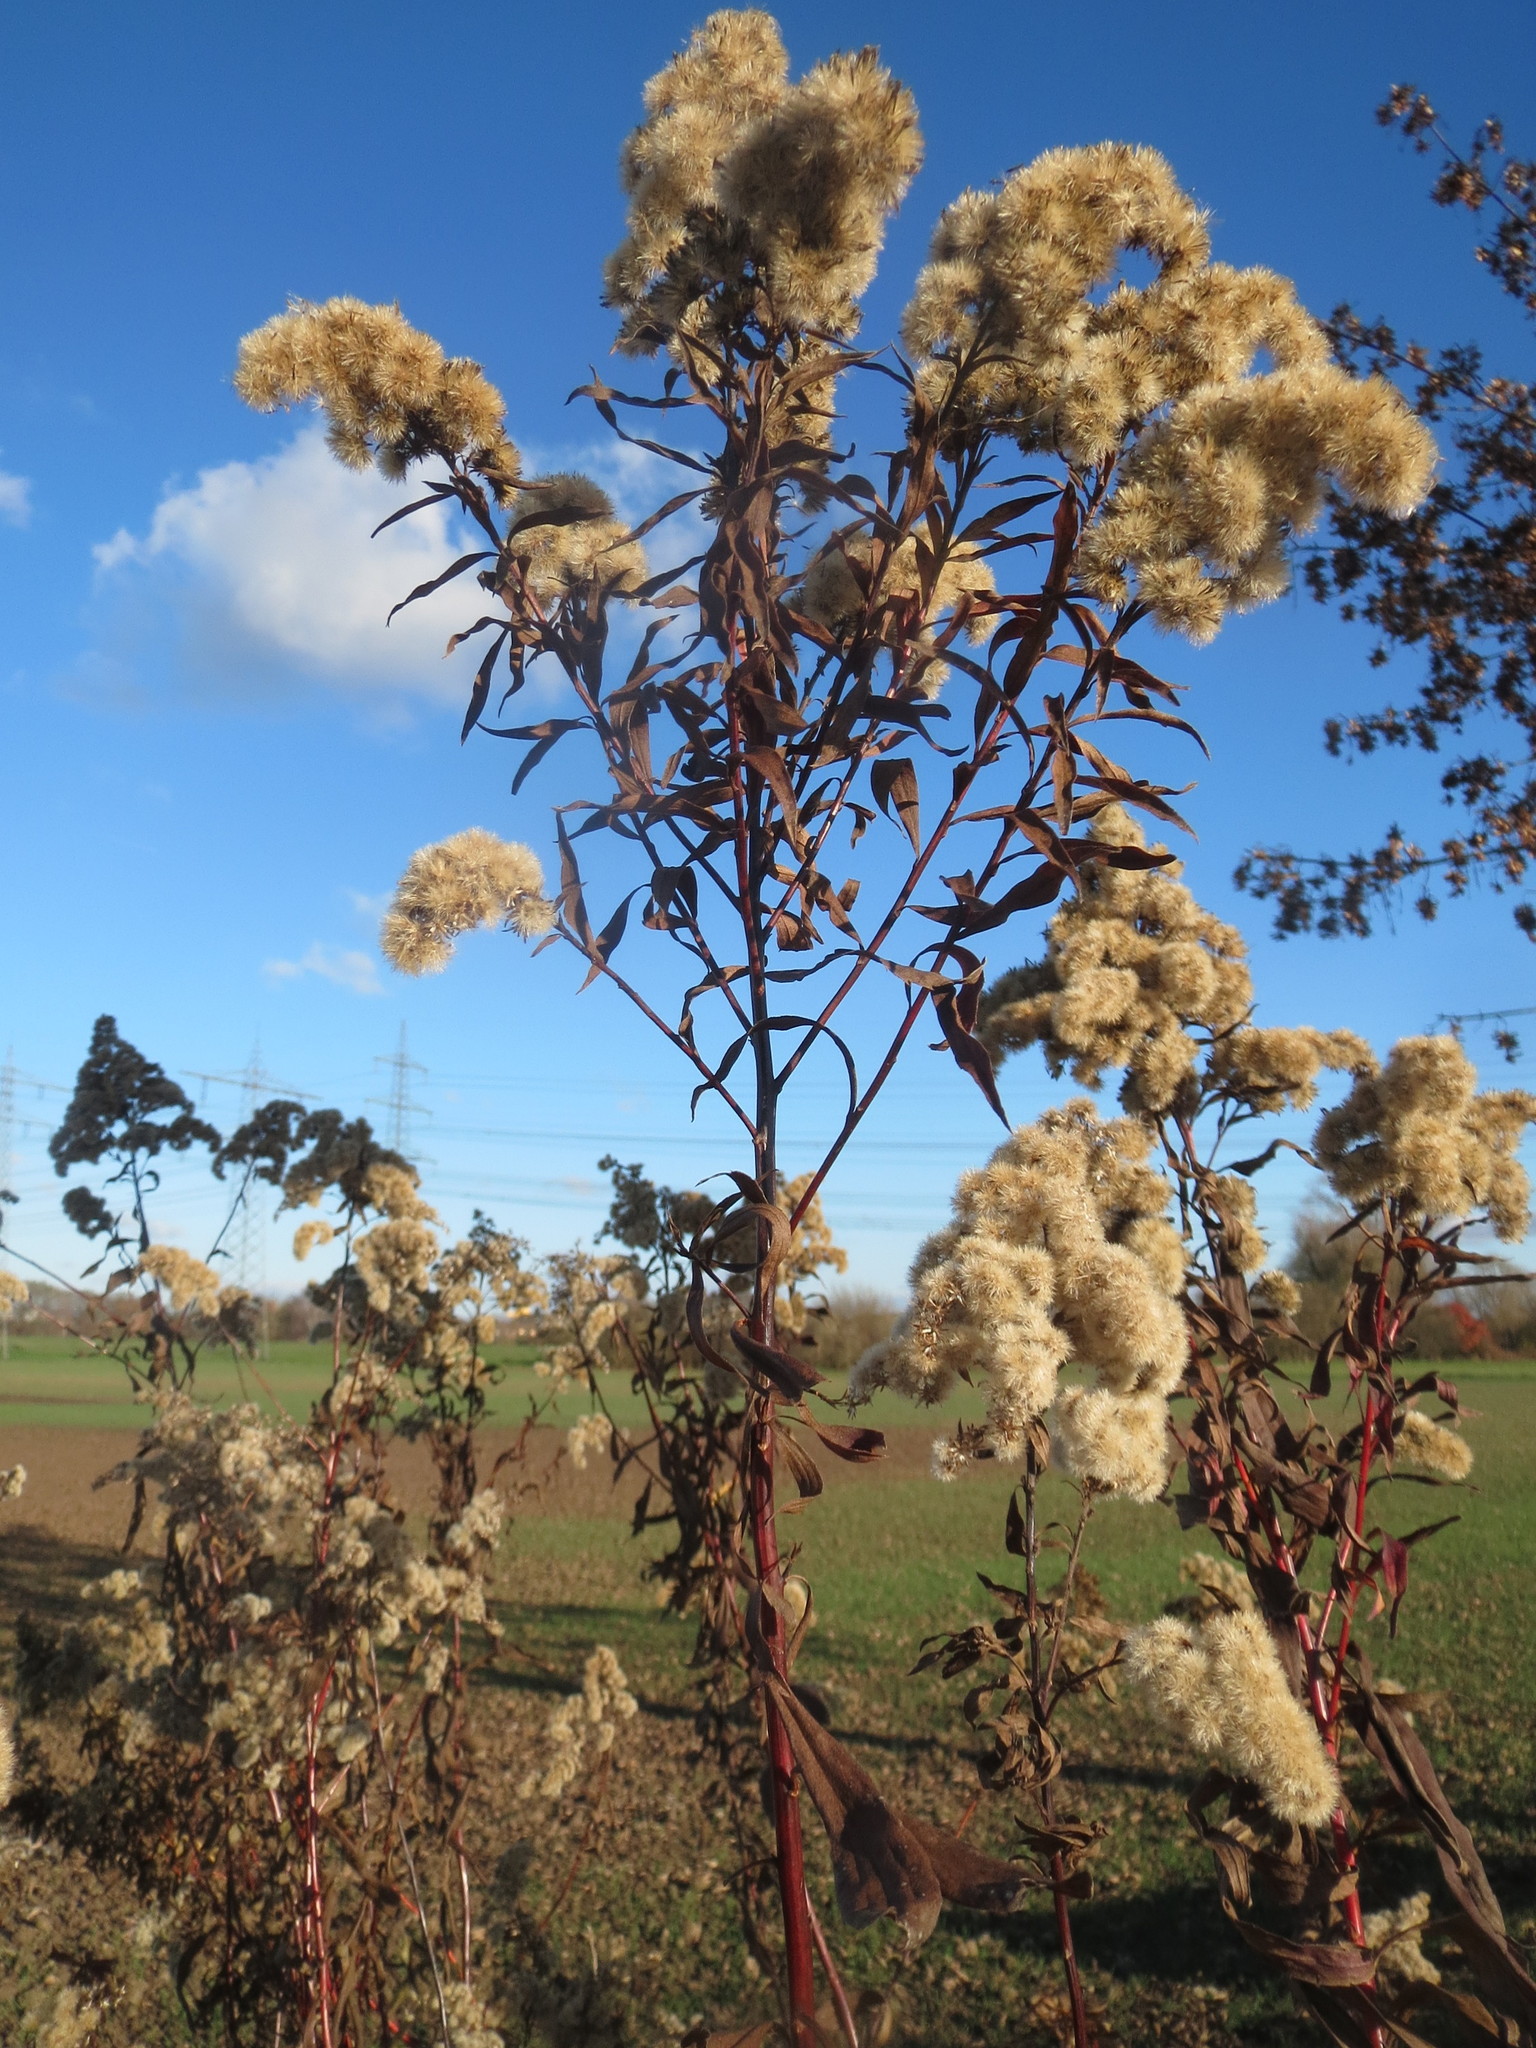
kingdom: Plantae
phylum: Tracheophyta
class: Magnoliopsida
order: Asterales
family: Asteraceae
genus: Solidago
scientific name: Solidago
